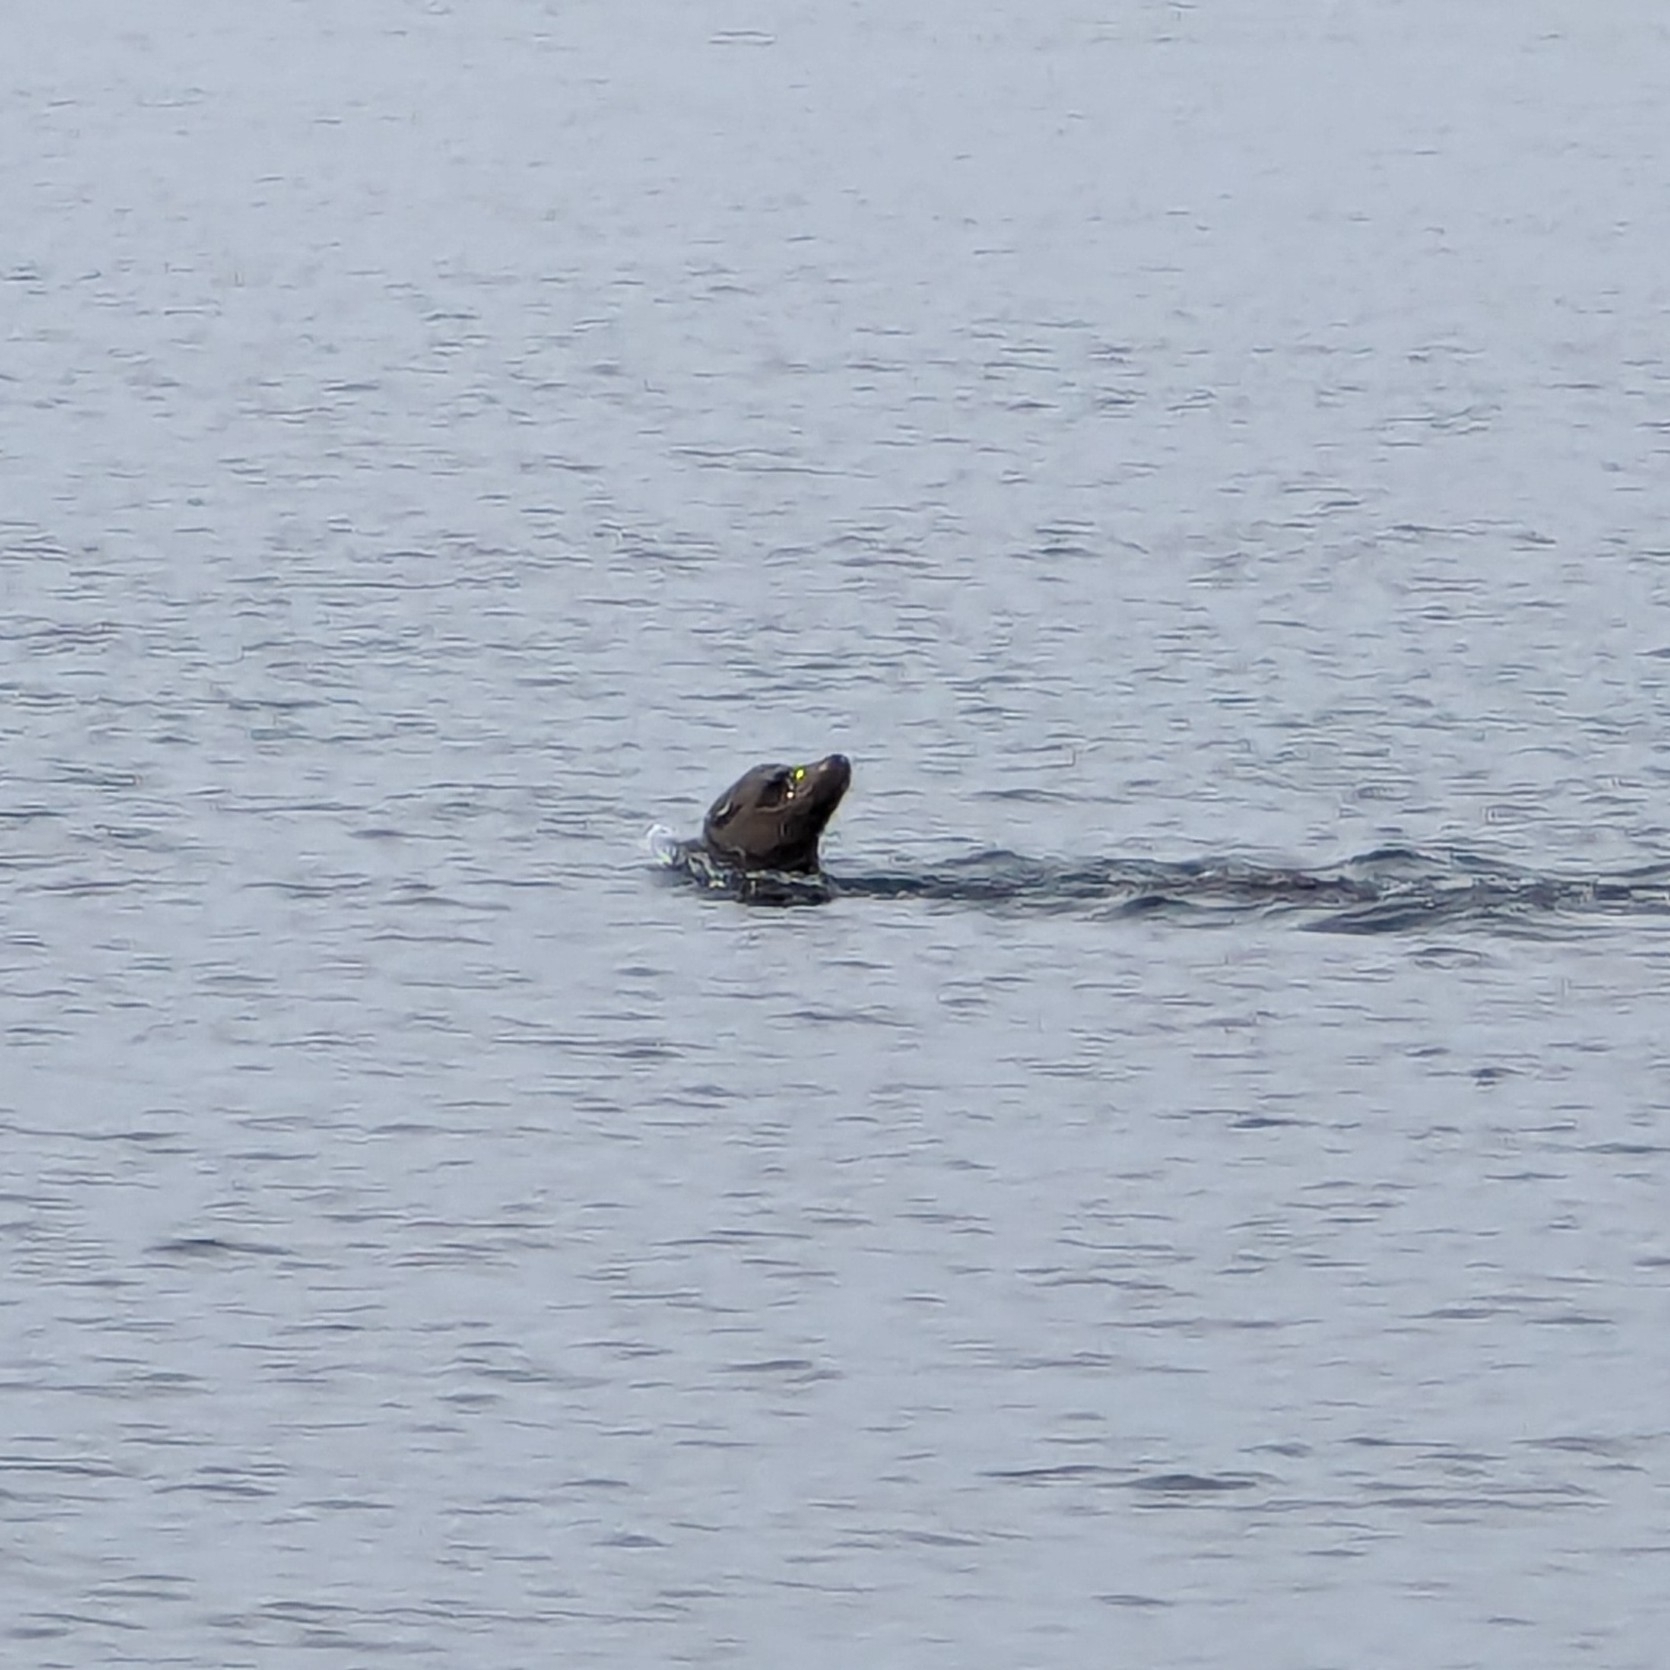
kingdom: Animalia
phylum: Chordata
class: Mammalia
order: Carnivora
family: Otariidae
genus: Zalophus
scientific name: Zalophus californianus
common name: California sea lion
